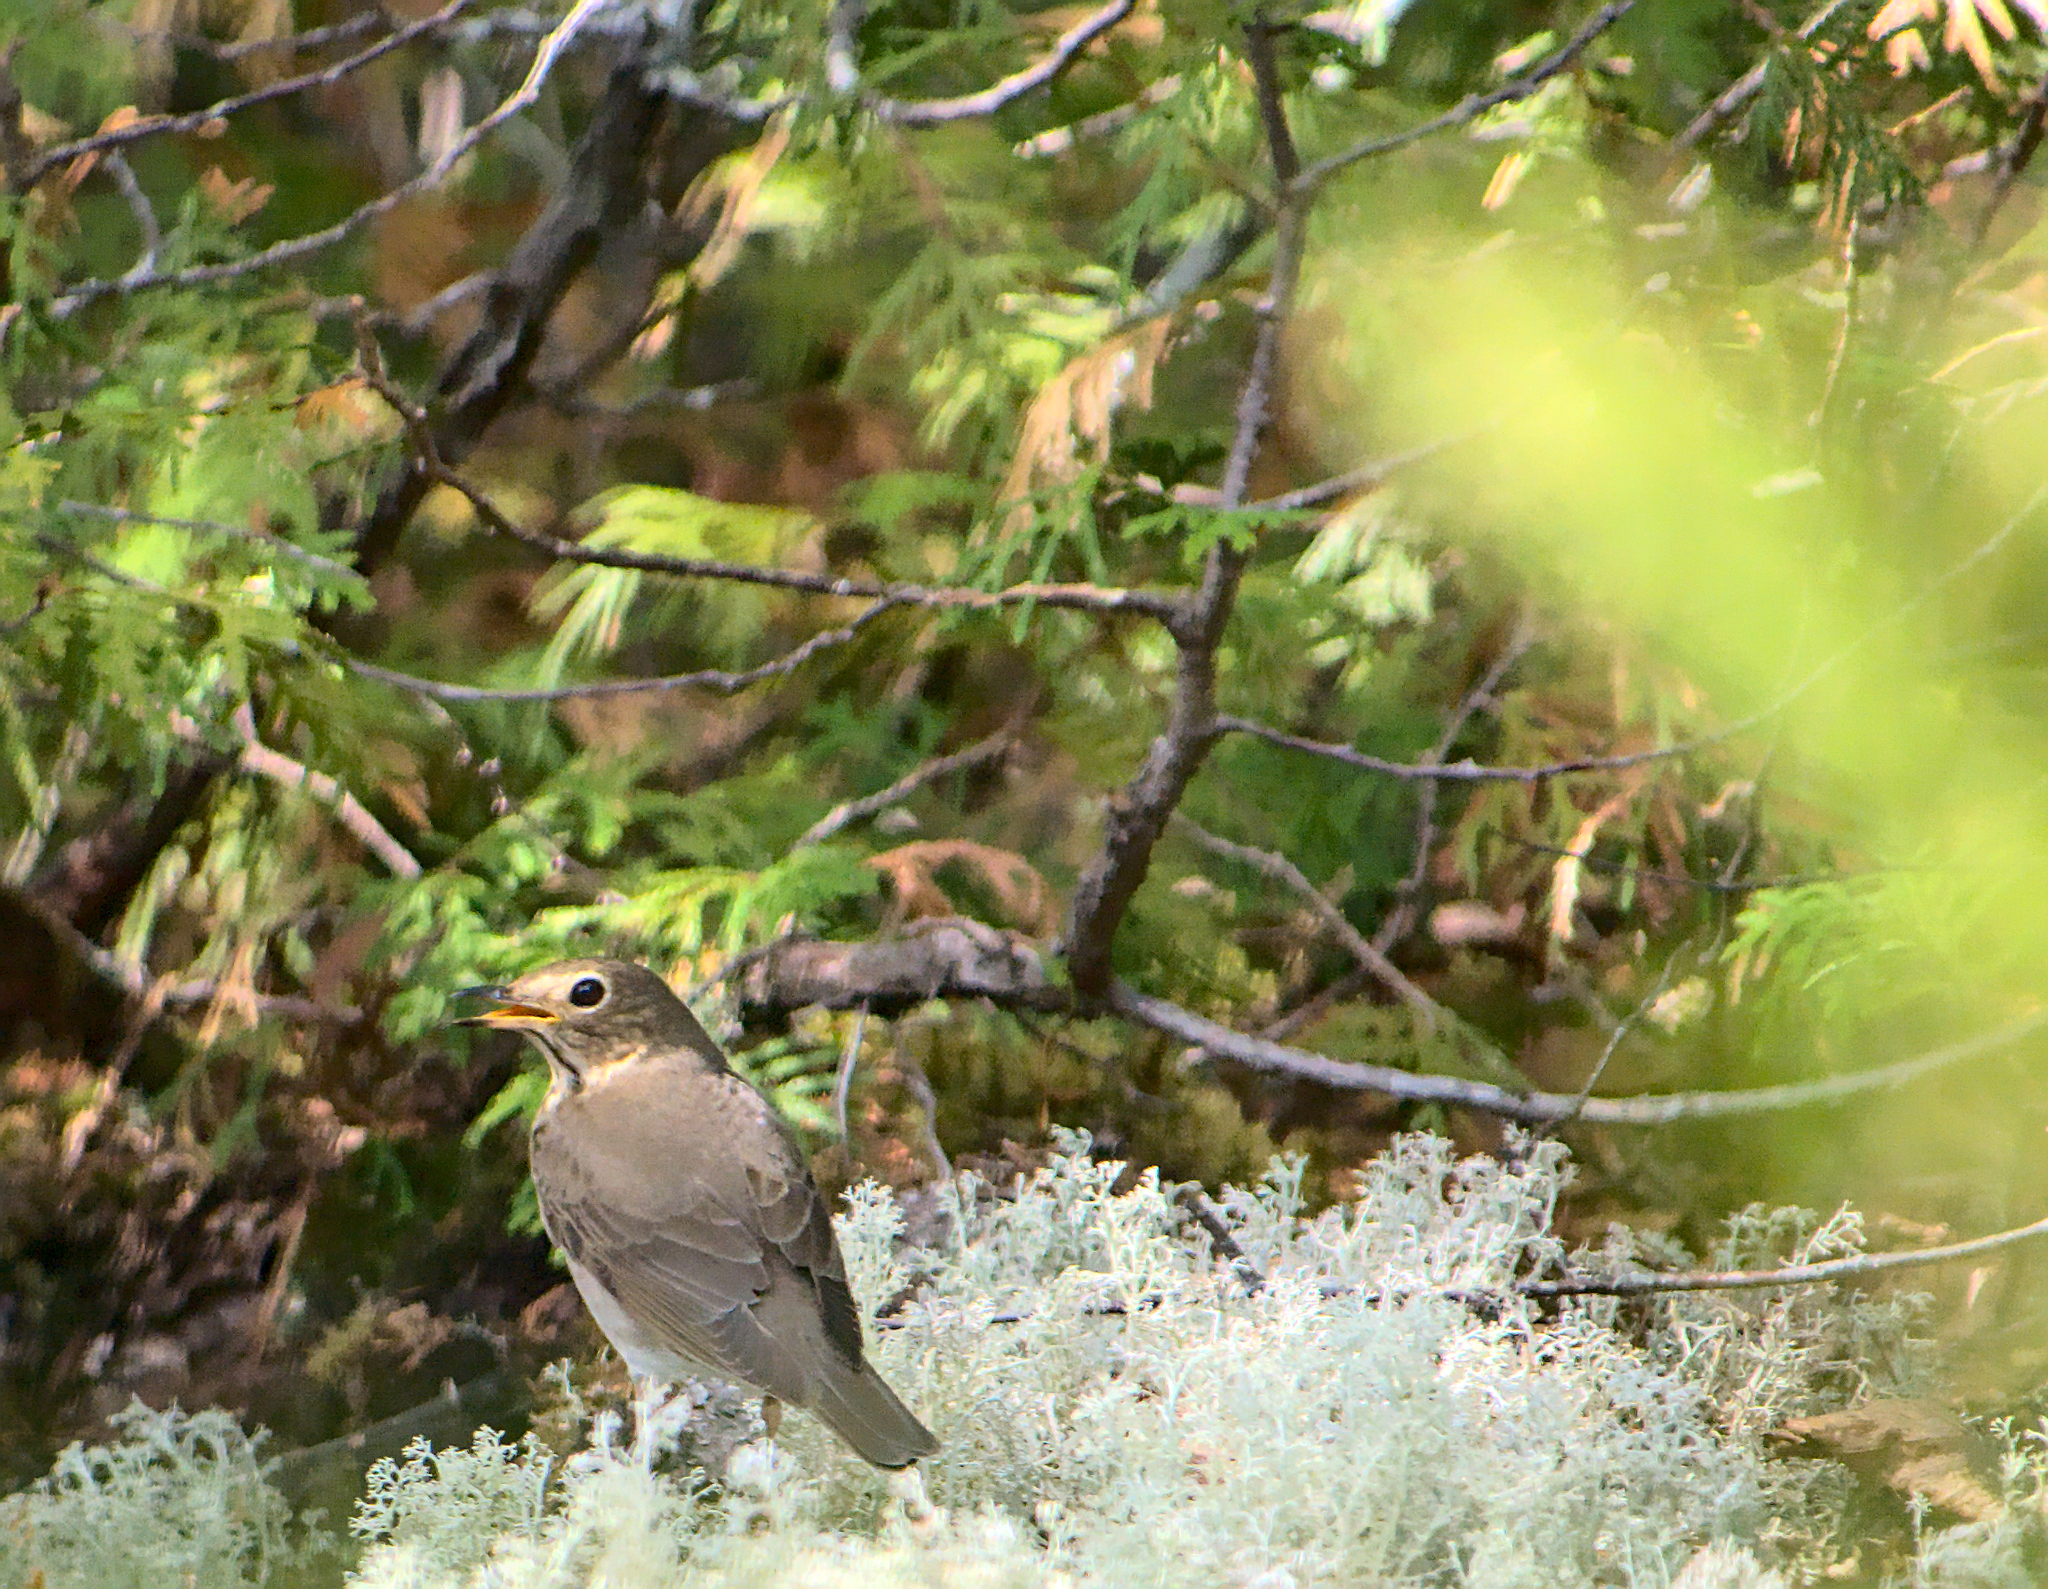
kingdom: Animalia
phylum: Chordata
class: Aves
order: Passeriformes
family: Turdidae
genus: Catharus
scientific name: Catharus ustulatus
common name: Swainson's thrush
